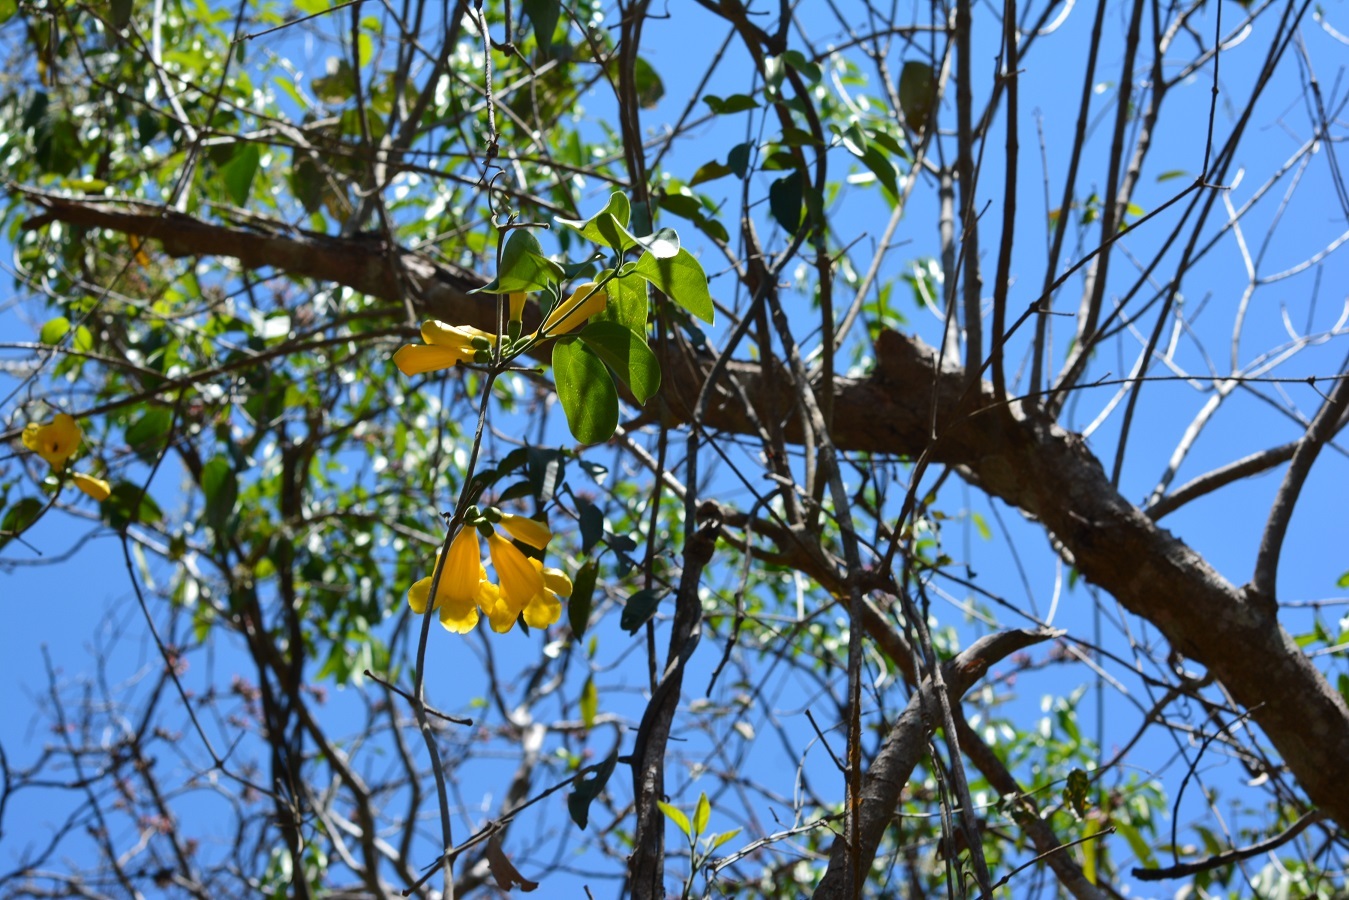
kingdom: Plantae
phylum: Tracheophyta
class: Magnoliopsida
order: Lamiales
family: Bignoniaceae
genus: Anemopaegma
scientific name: Anemopaegma chrysanthum
